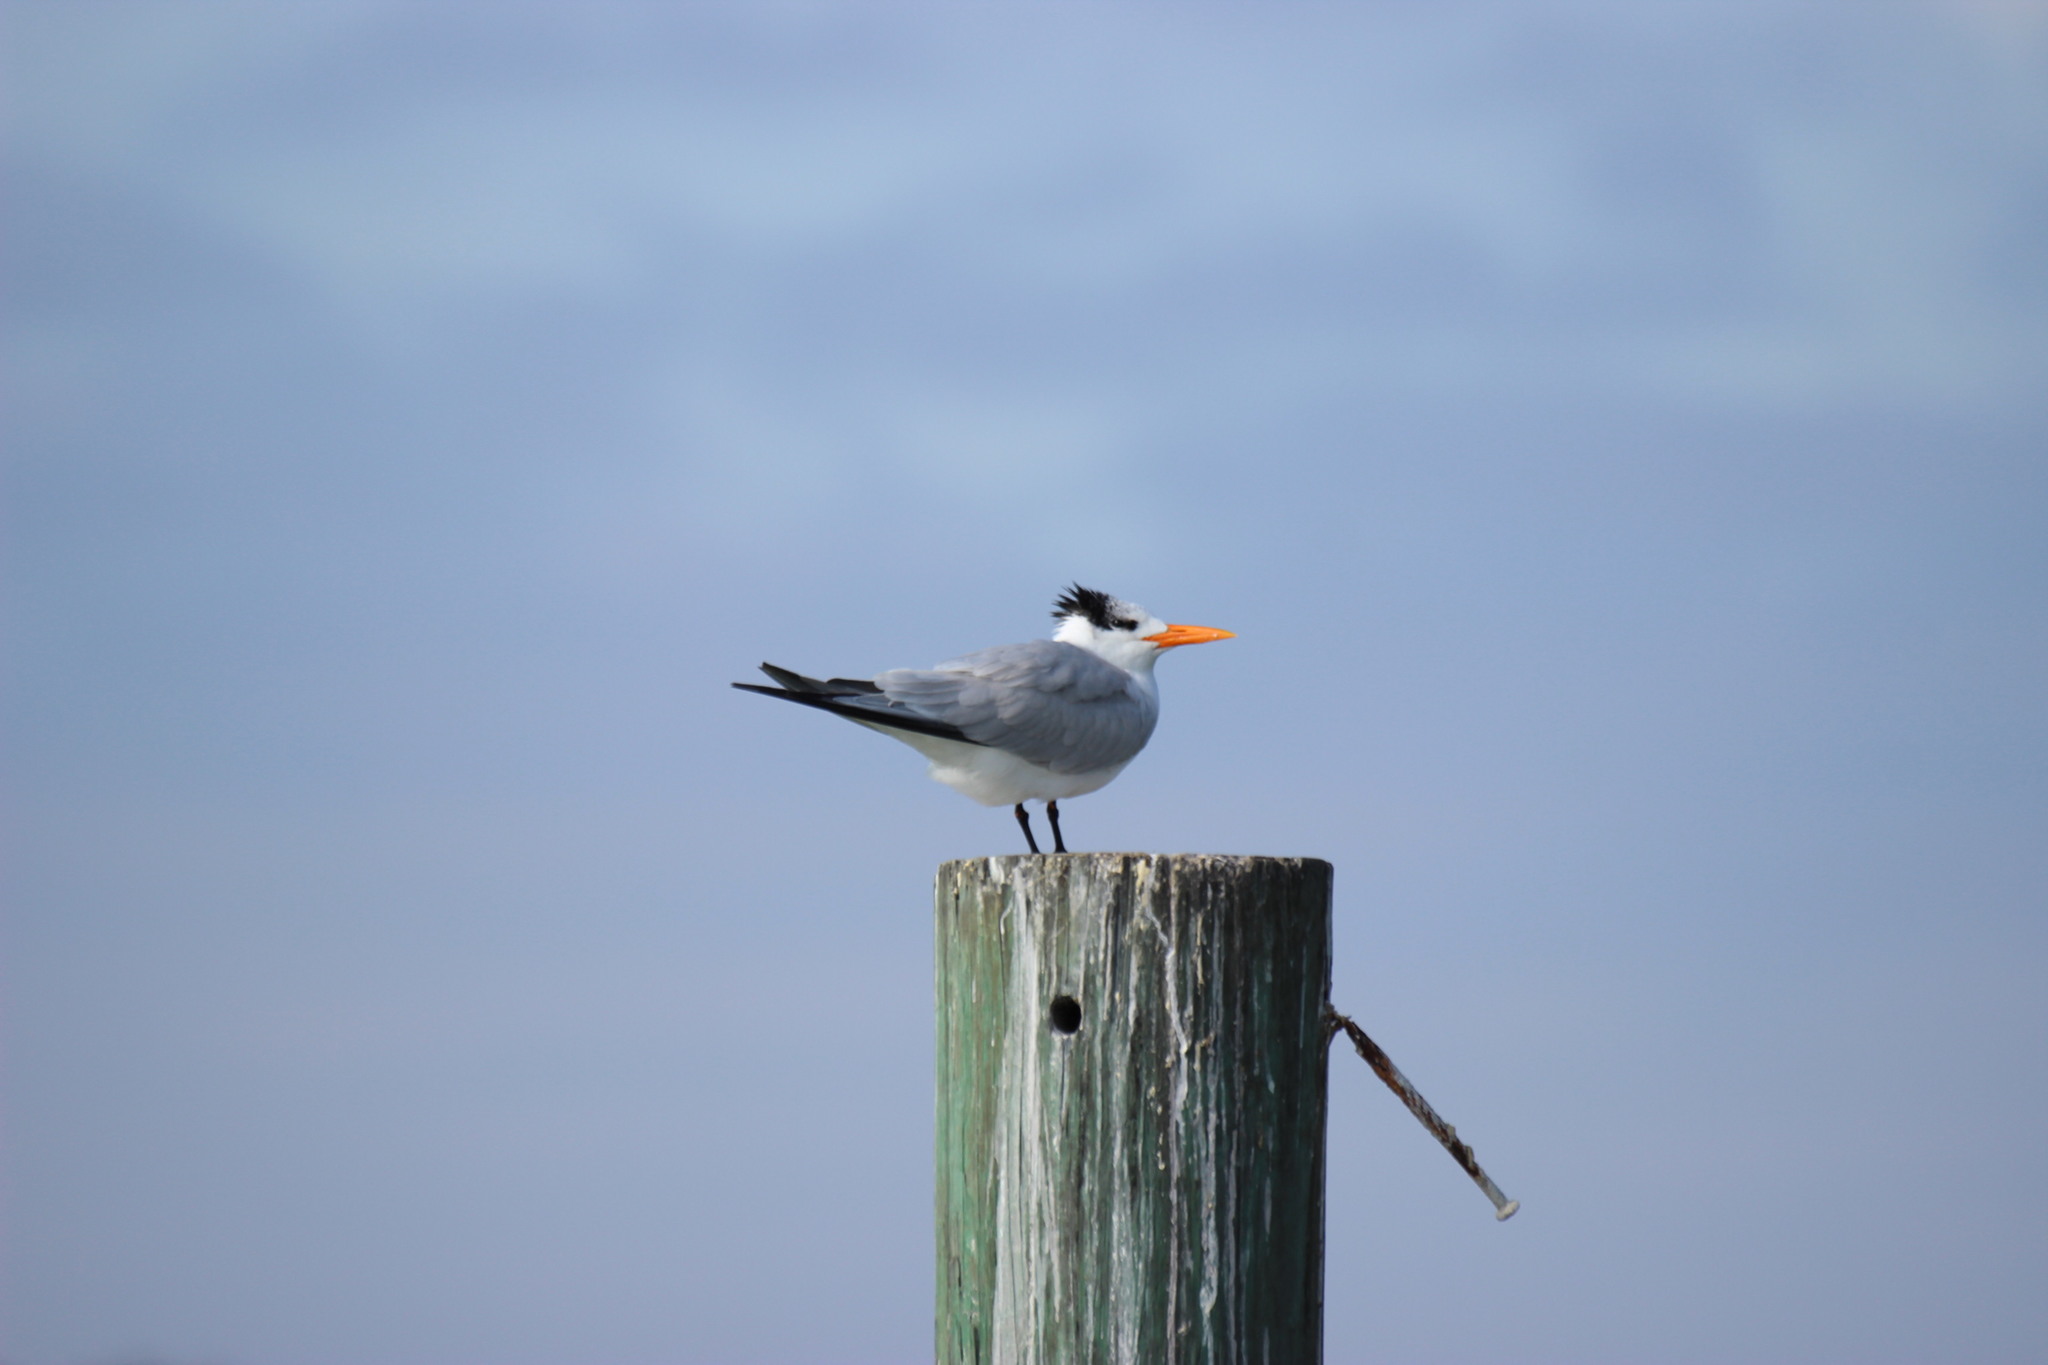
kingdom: Animalia
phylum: Chordata
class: Aves
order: Charadriiformes
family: Laridae
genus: Thalasseus
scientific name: Thalasseus maximus
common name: Royal tern
